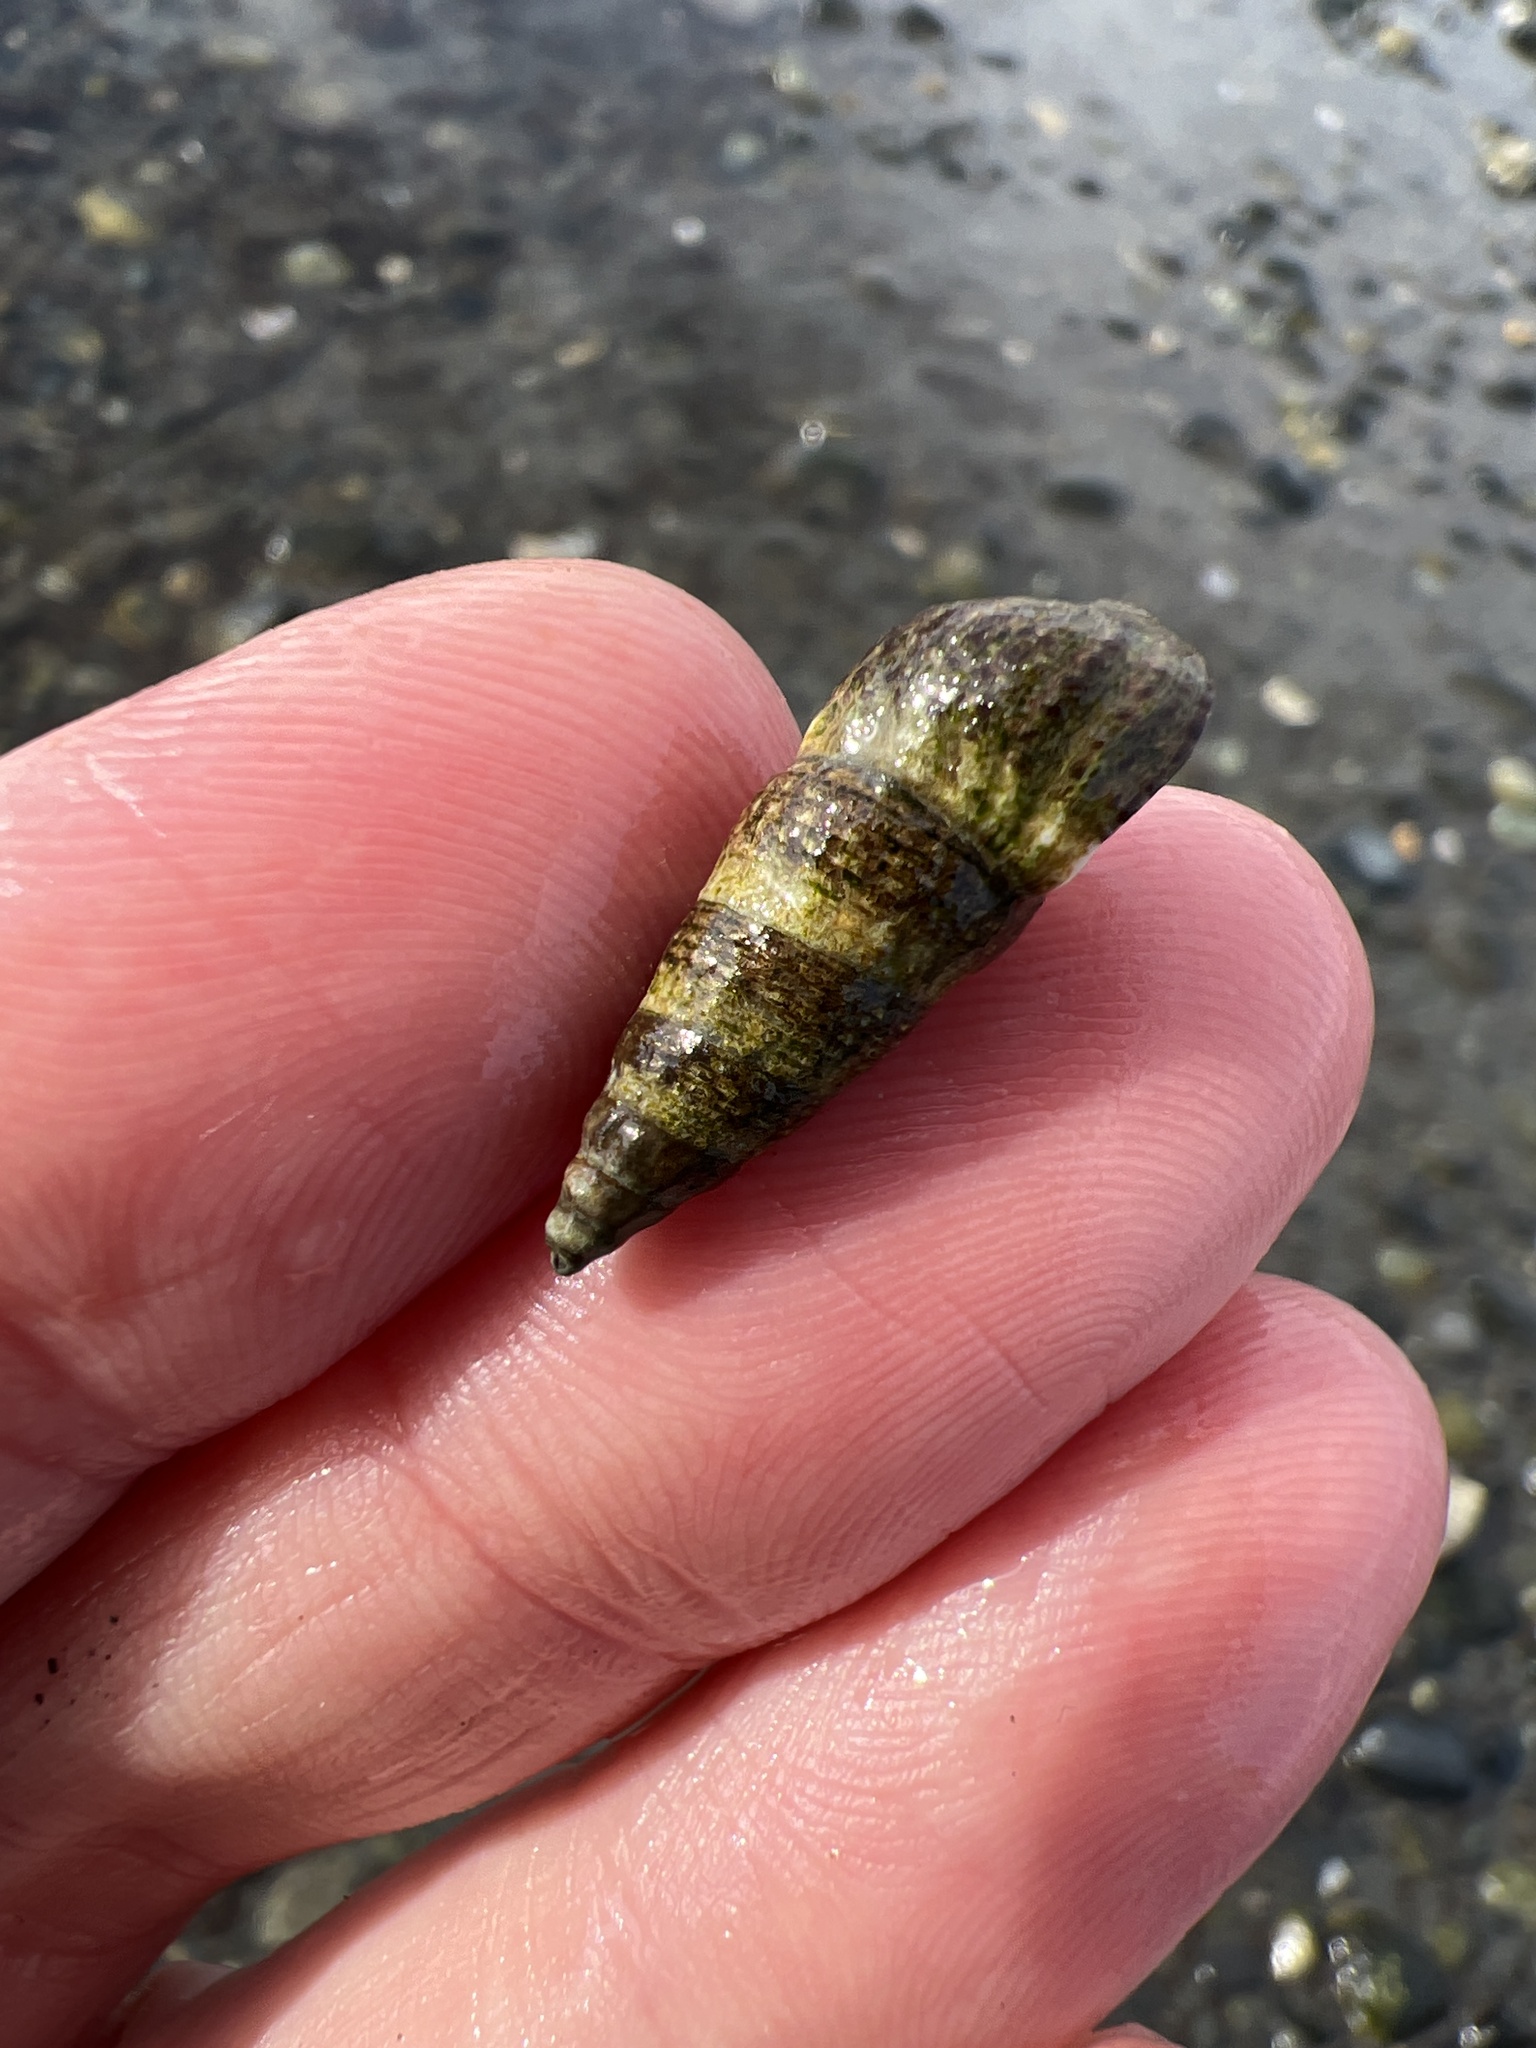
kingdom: Animalia
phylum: Mollusca
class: Gastropoda
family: Batillariidae
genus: Batillaria
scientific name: Batillaria attramentaria
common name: Japanese false cerith
